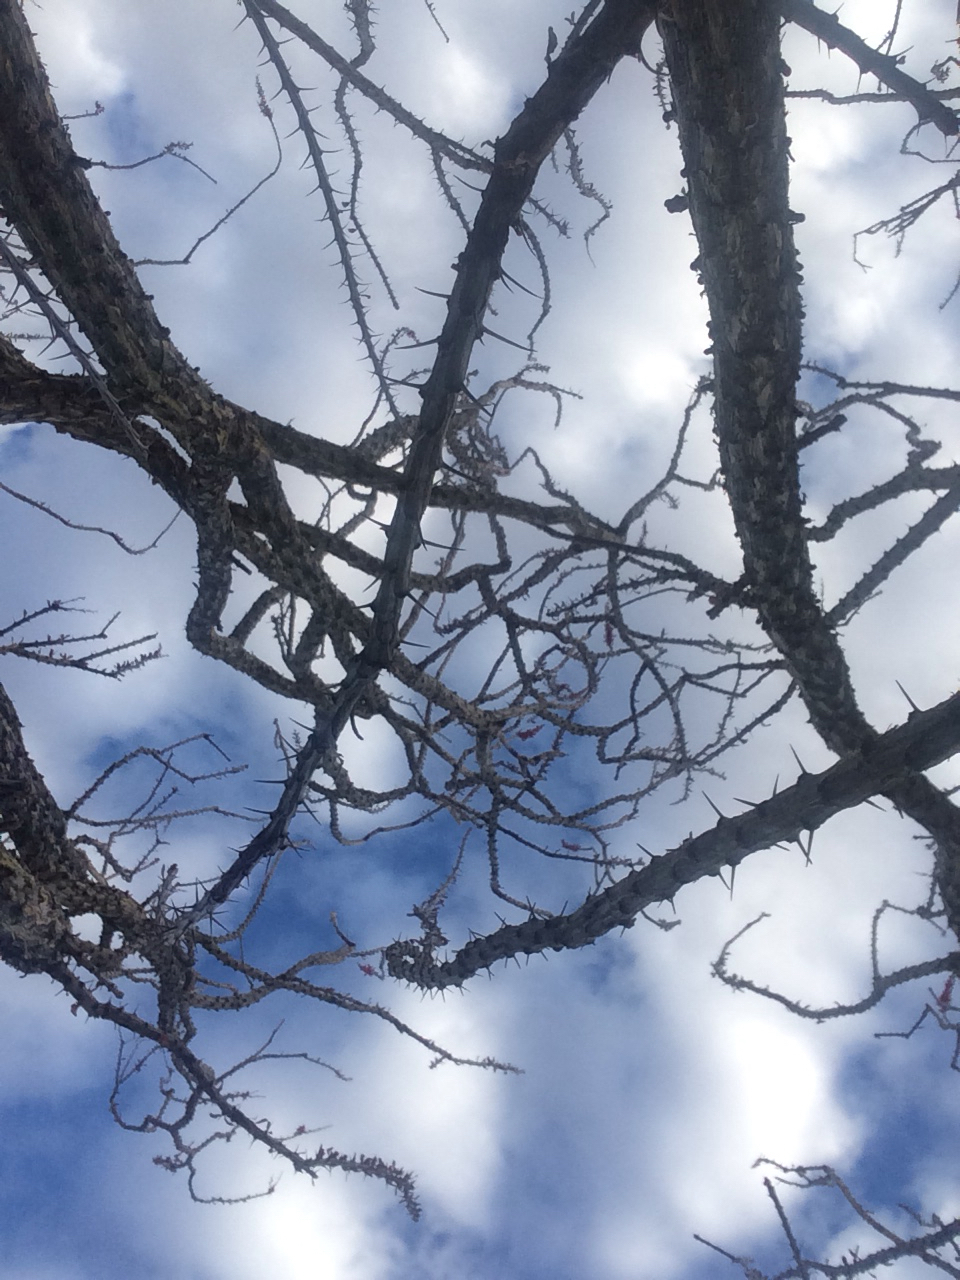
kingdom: Plantae
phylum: Tracheophyta
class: Magnoliopsida
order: Ericales
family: Fouquieriaceae
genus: Fouquieria
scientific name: Fouquieria splendens
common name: Vine-cactus
